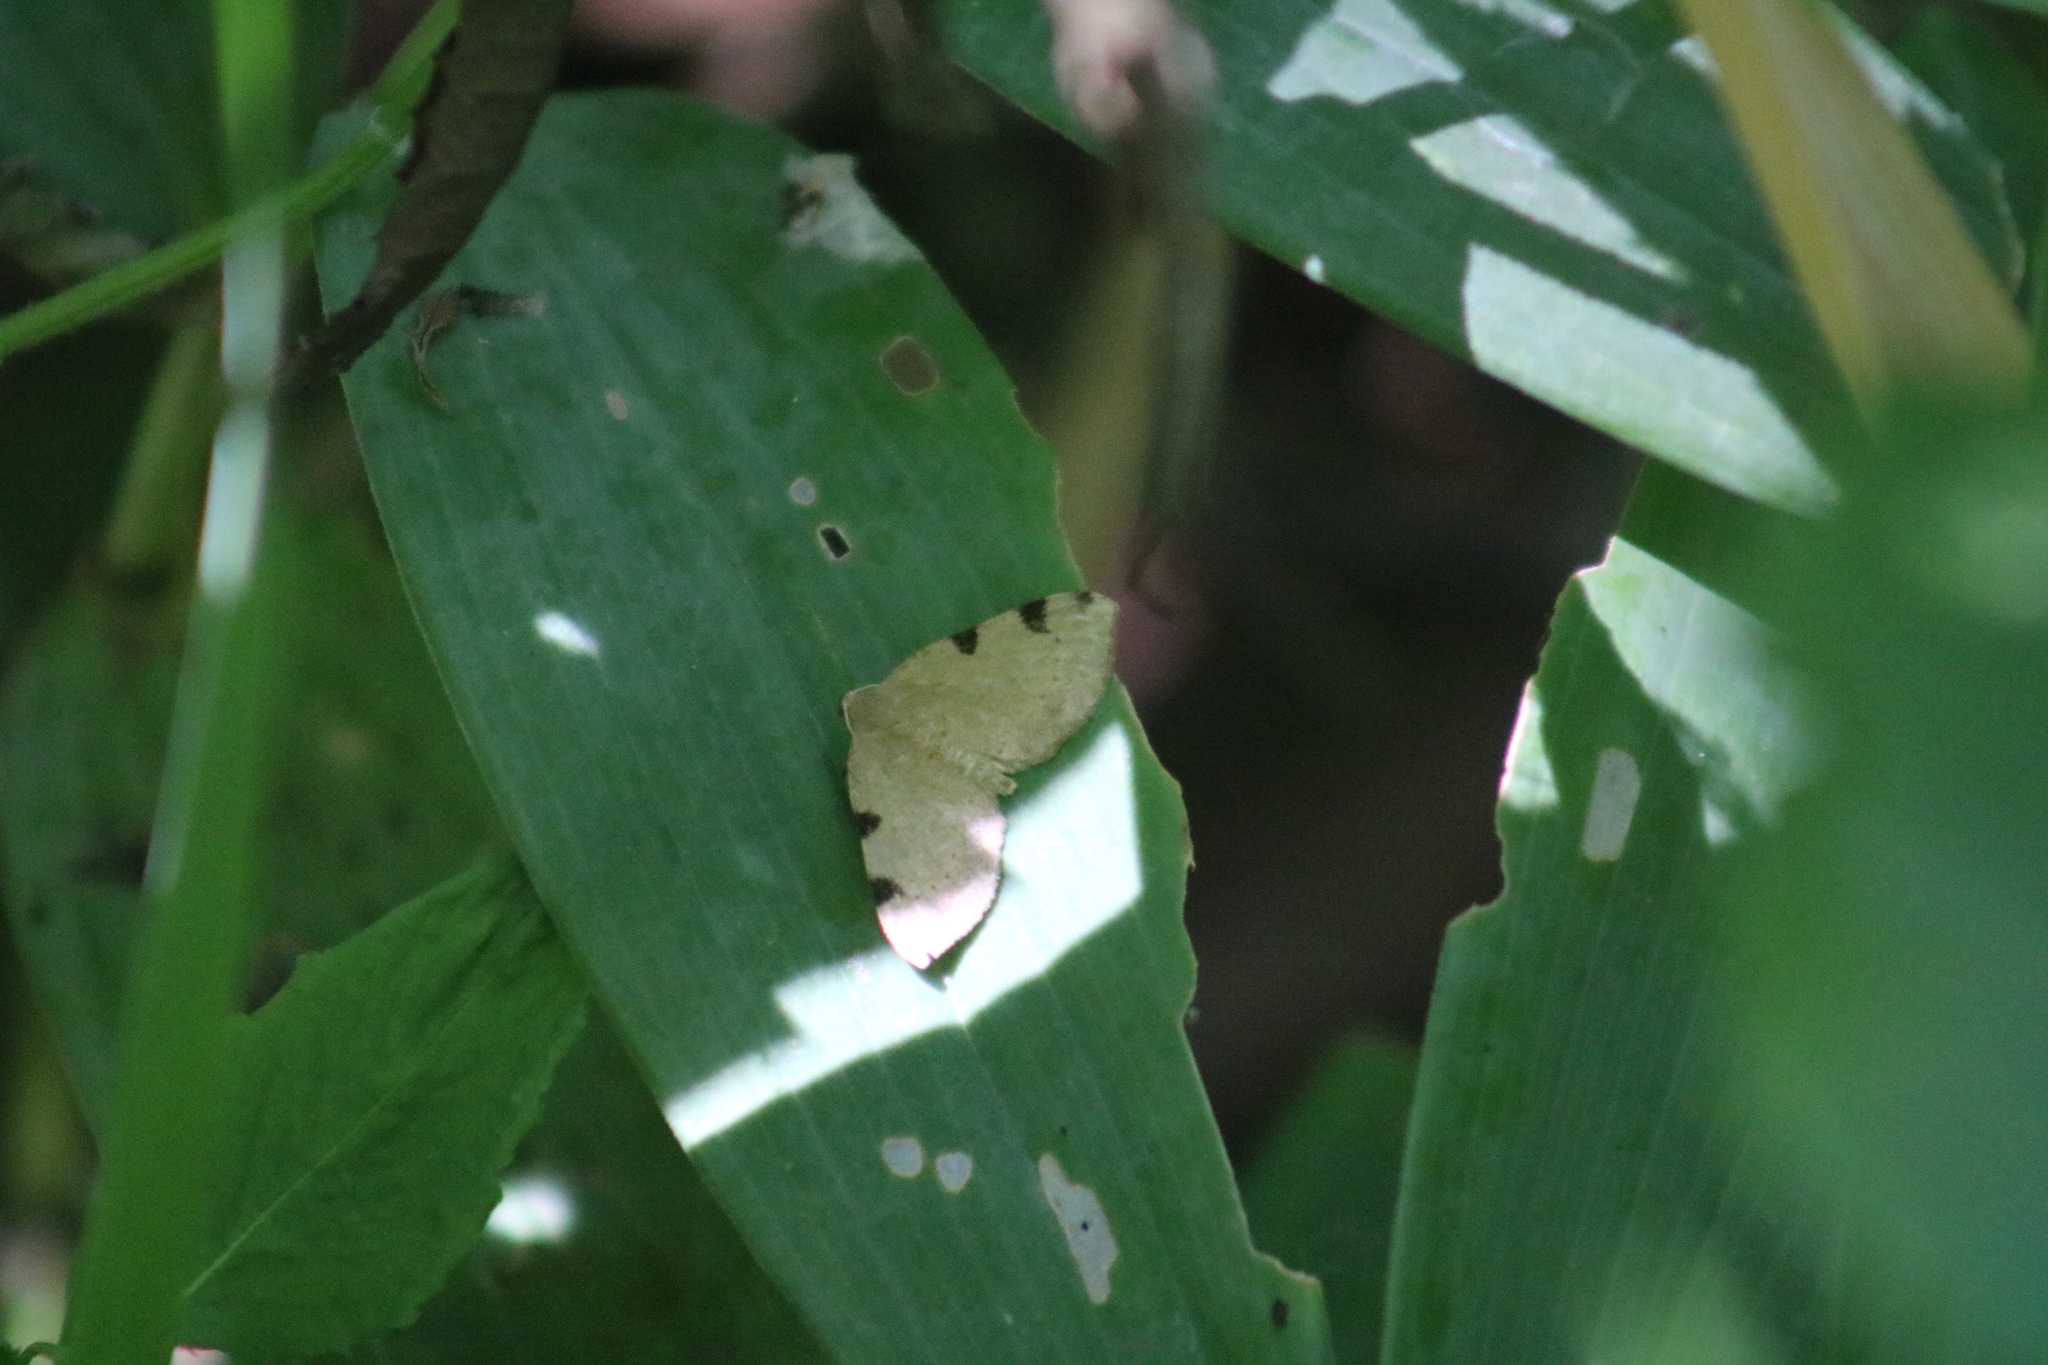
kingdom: Animalia
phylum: Arthropoda
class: Insecta
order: Lepidoptera
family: Geometridae
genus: Heterophleps
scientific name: Heterophleps triguttaria
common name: Three-spotted fillip
